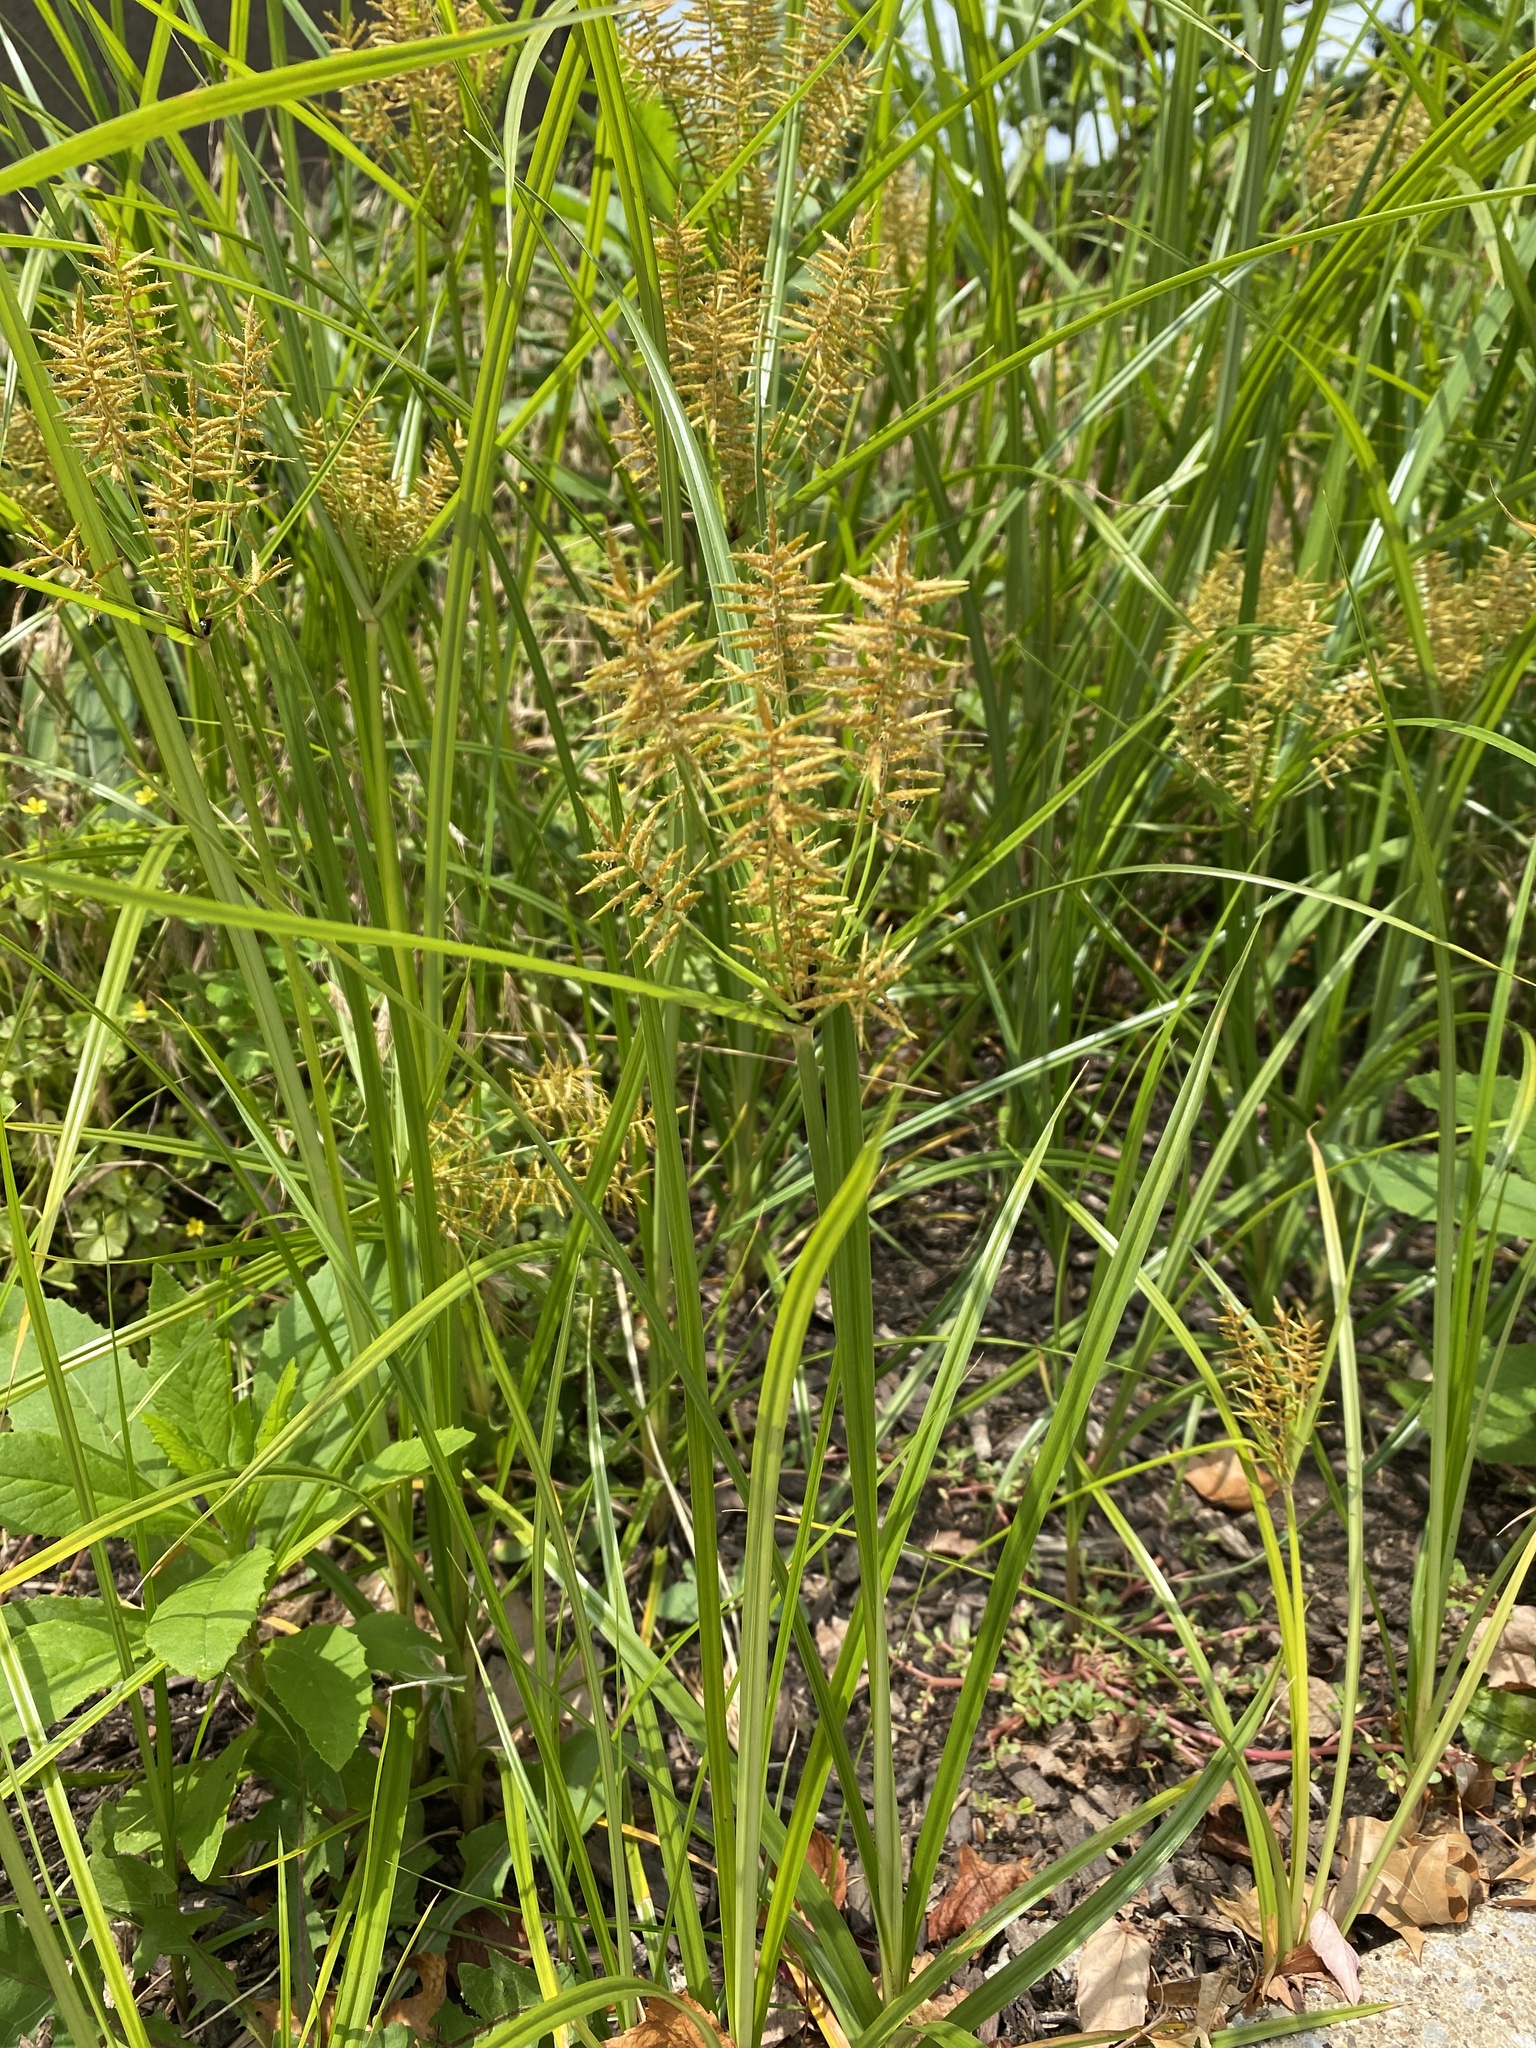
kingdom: Plantae
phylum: Tracheophyta
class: Liliopsida
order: Poales
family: Cyperaceae
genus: Cyperus
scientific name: Cyperus esculentus
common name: Yellow nutsedge
